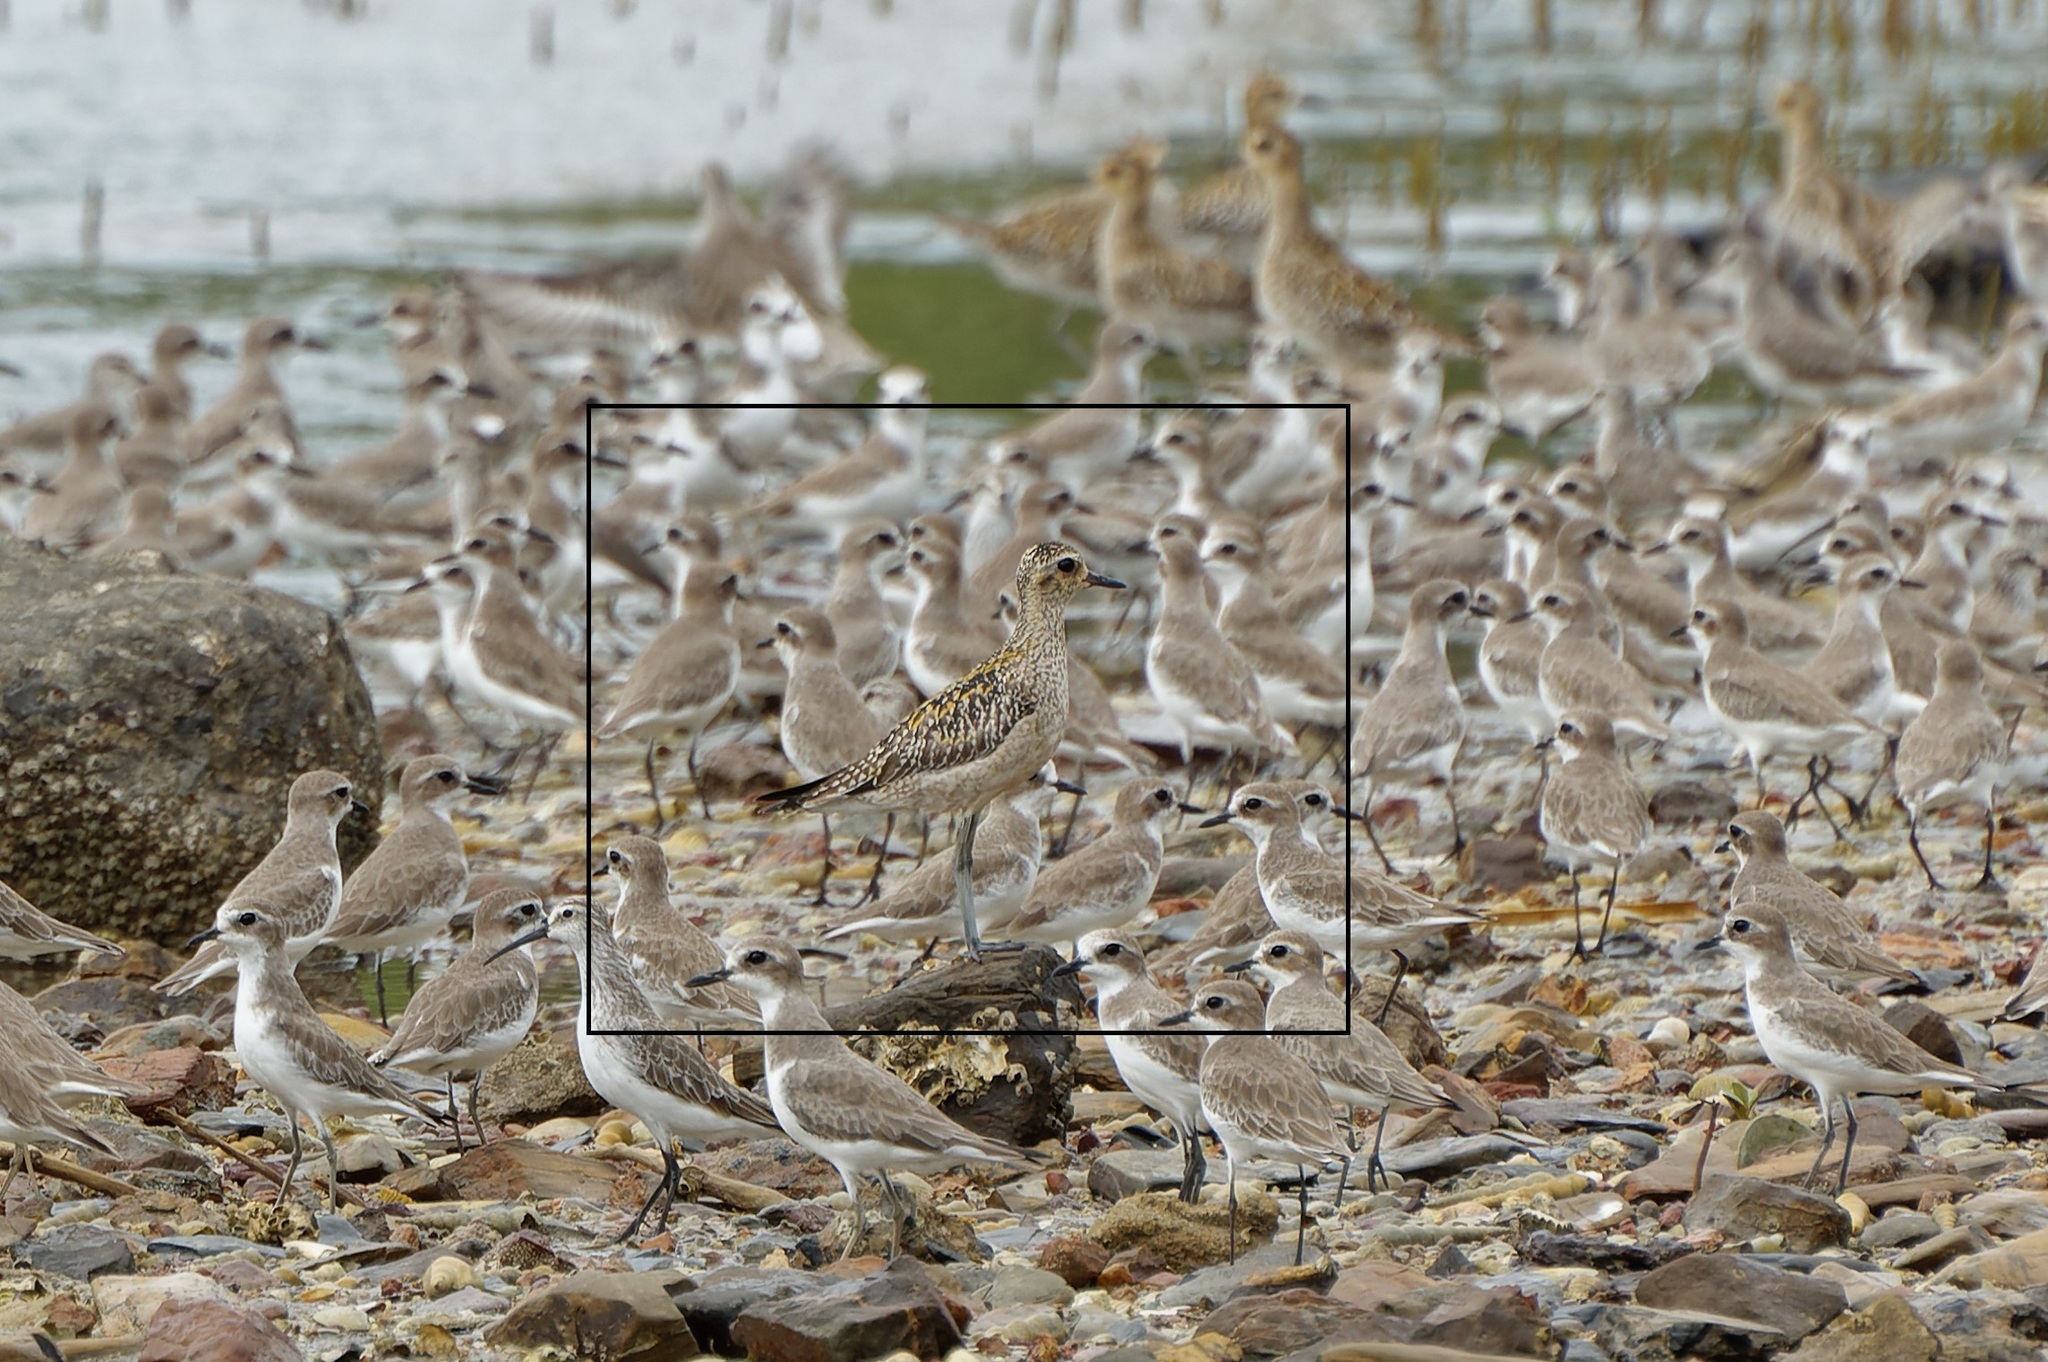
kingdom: Animalia
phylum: Chordata
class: Aves
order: Charadriiformes
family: Charadriidae
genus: Pluvialis
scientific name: Pluvialis fulva
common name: Pacific golden plover
